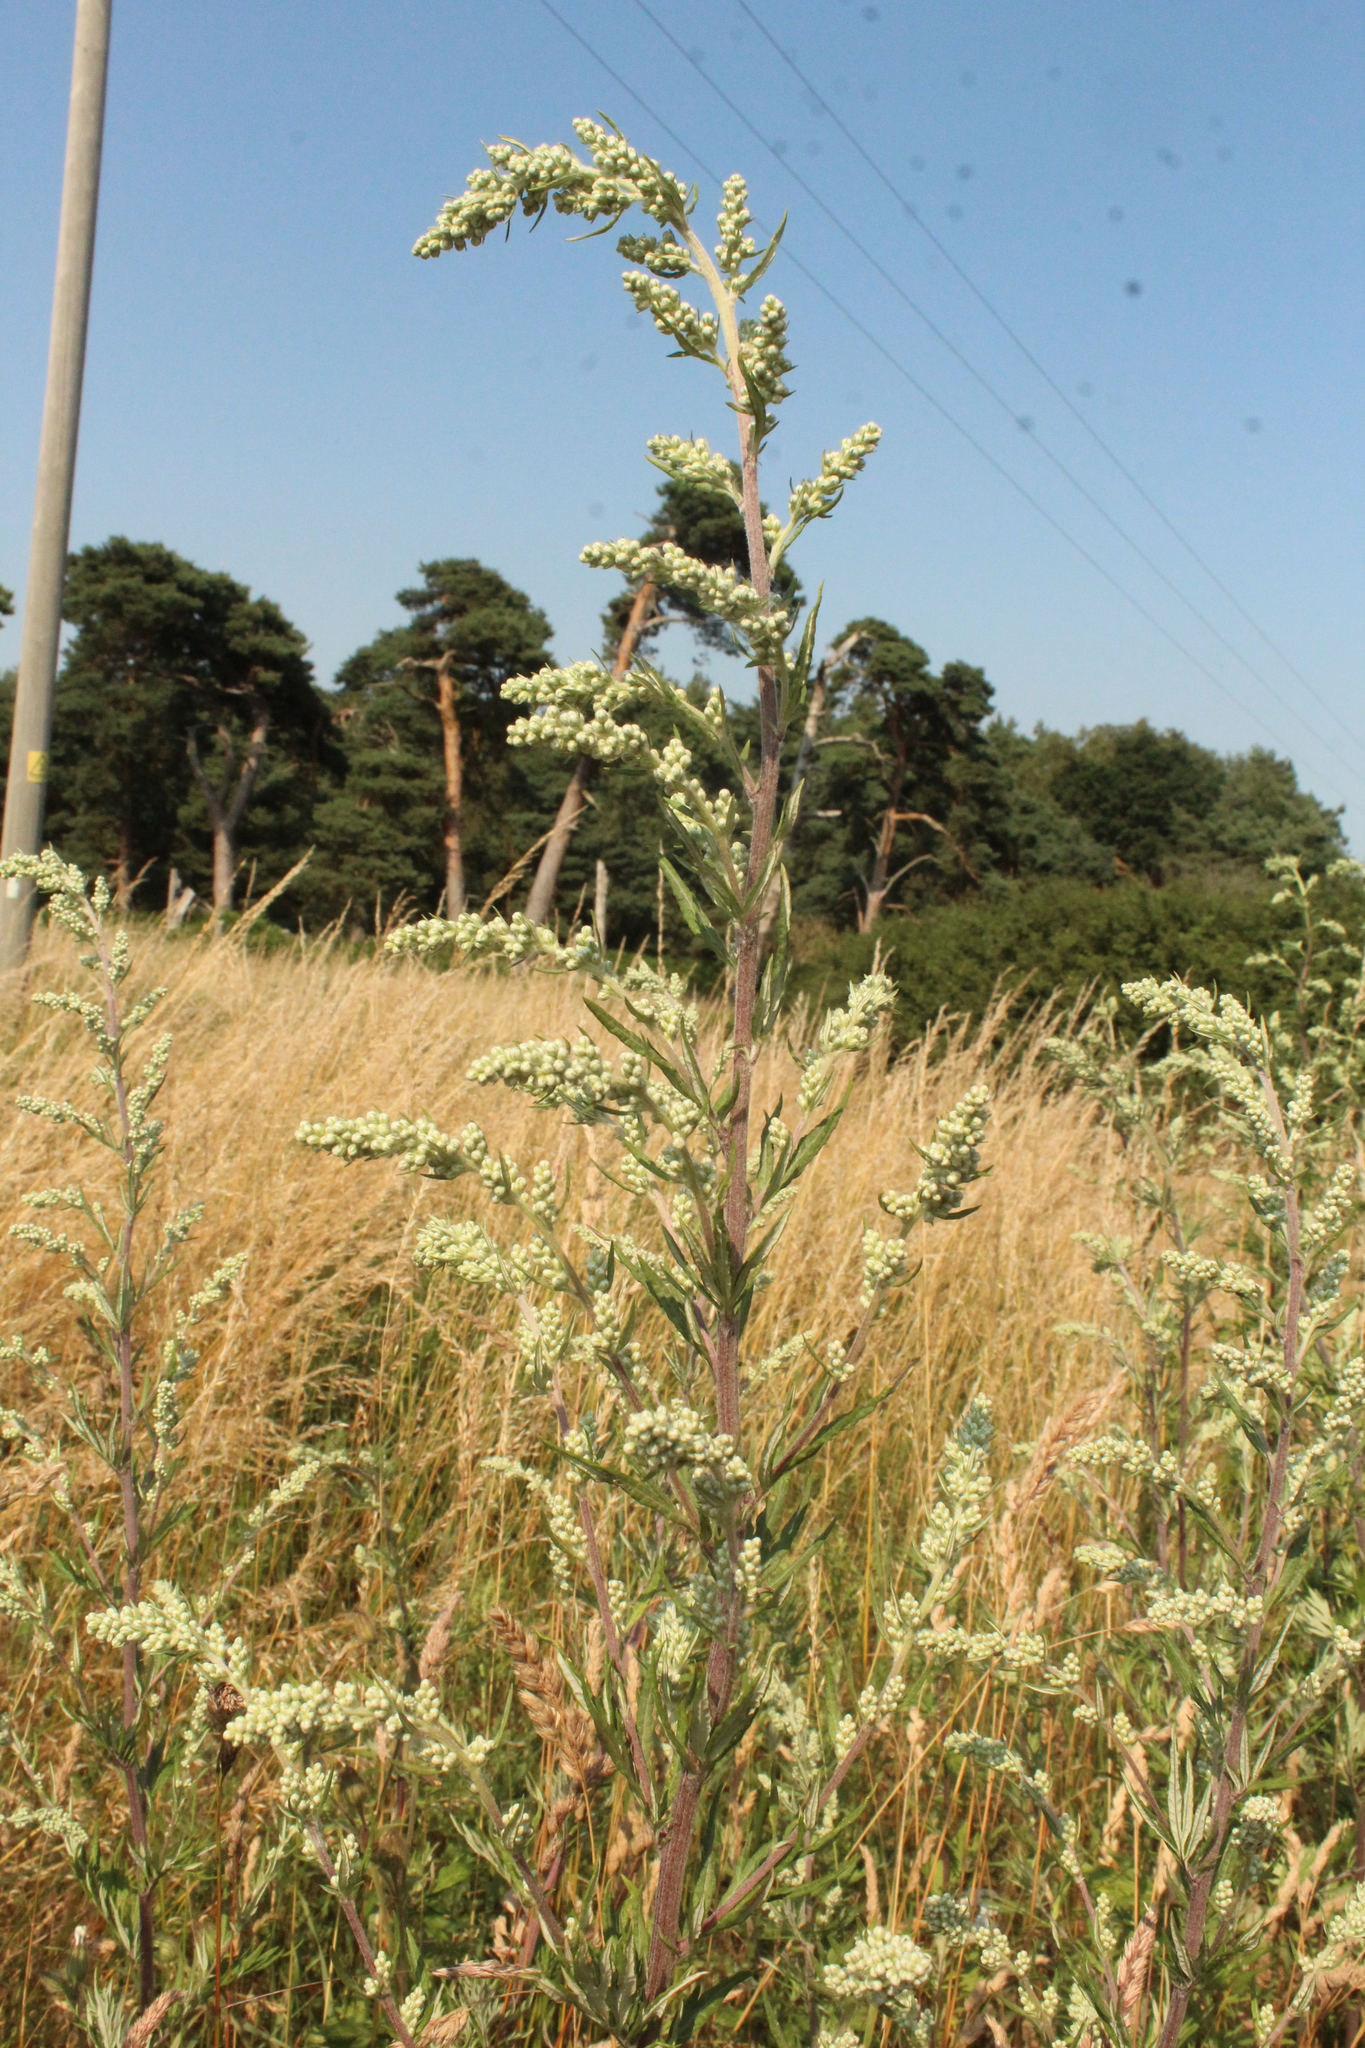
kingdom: Plantae
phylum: Tracheophyta
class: Magnoliopsida
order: Asterales
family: Asteraceae
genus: Artemisia
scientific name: Artemisia vulgaris
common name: Mugwort
